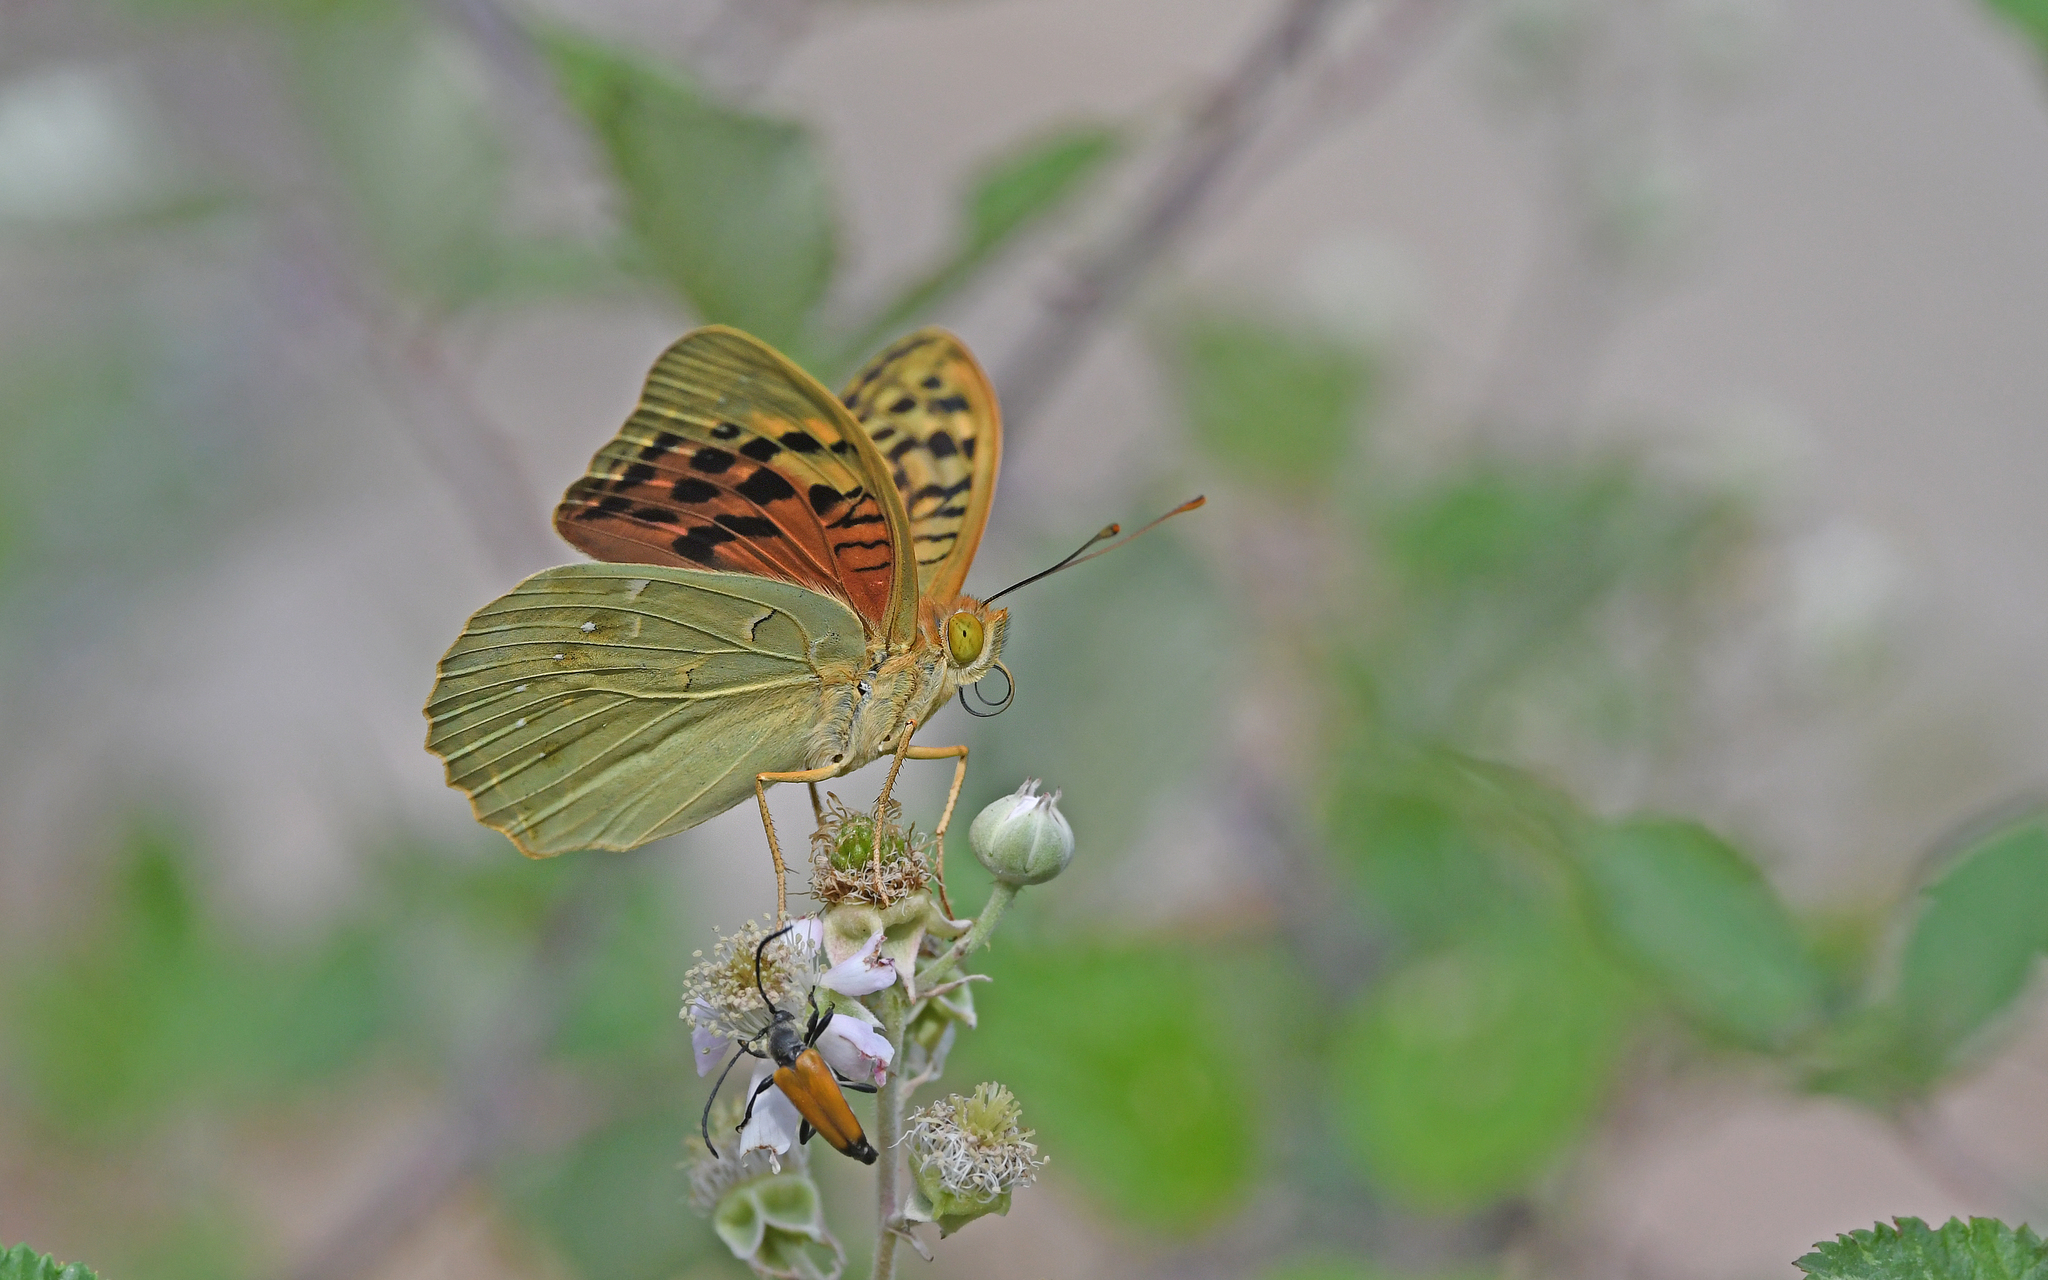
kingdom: Animalia
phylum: Arthropoda
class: Insecta
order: Lepidoptera
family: Nymphalidae
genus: Damora
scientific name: Damora pandora
